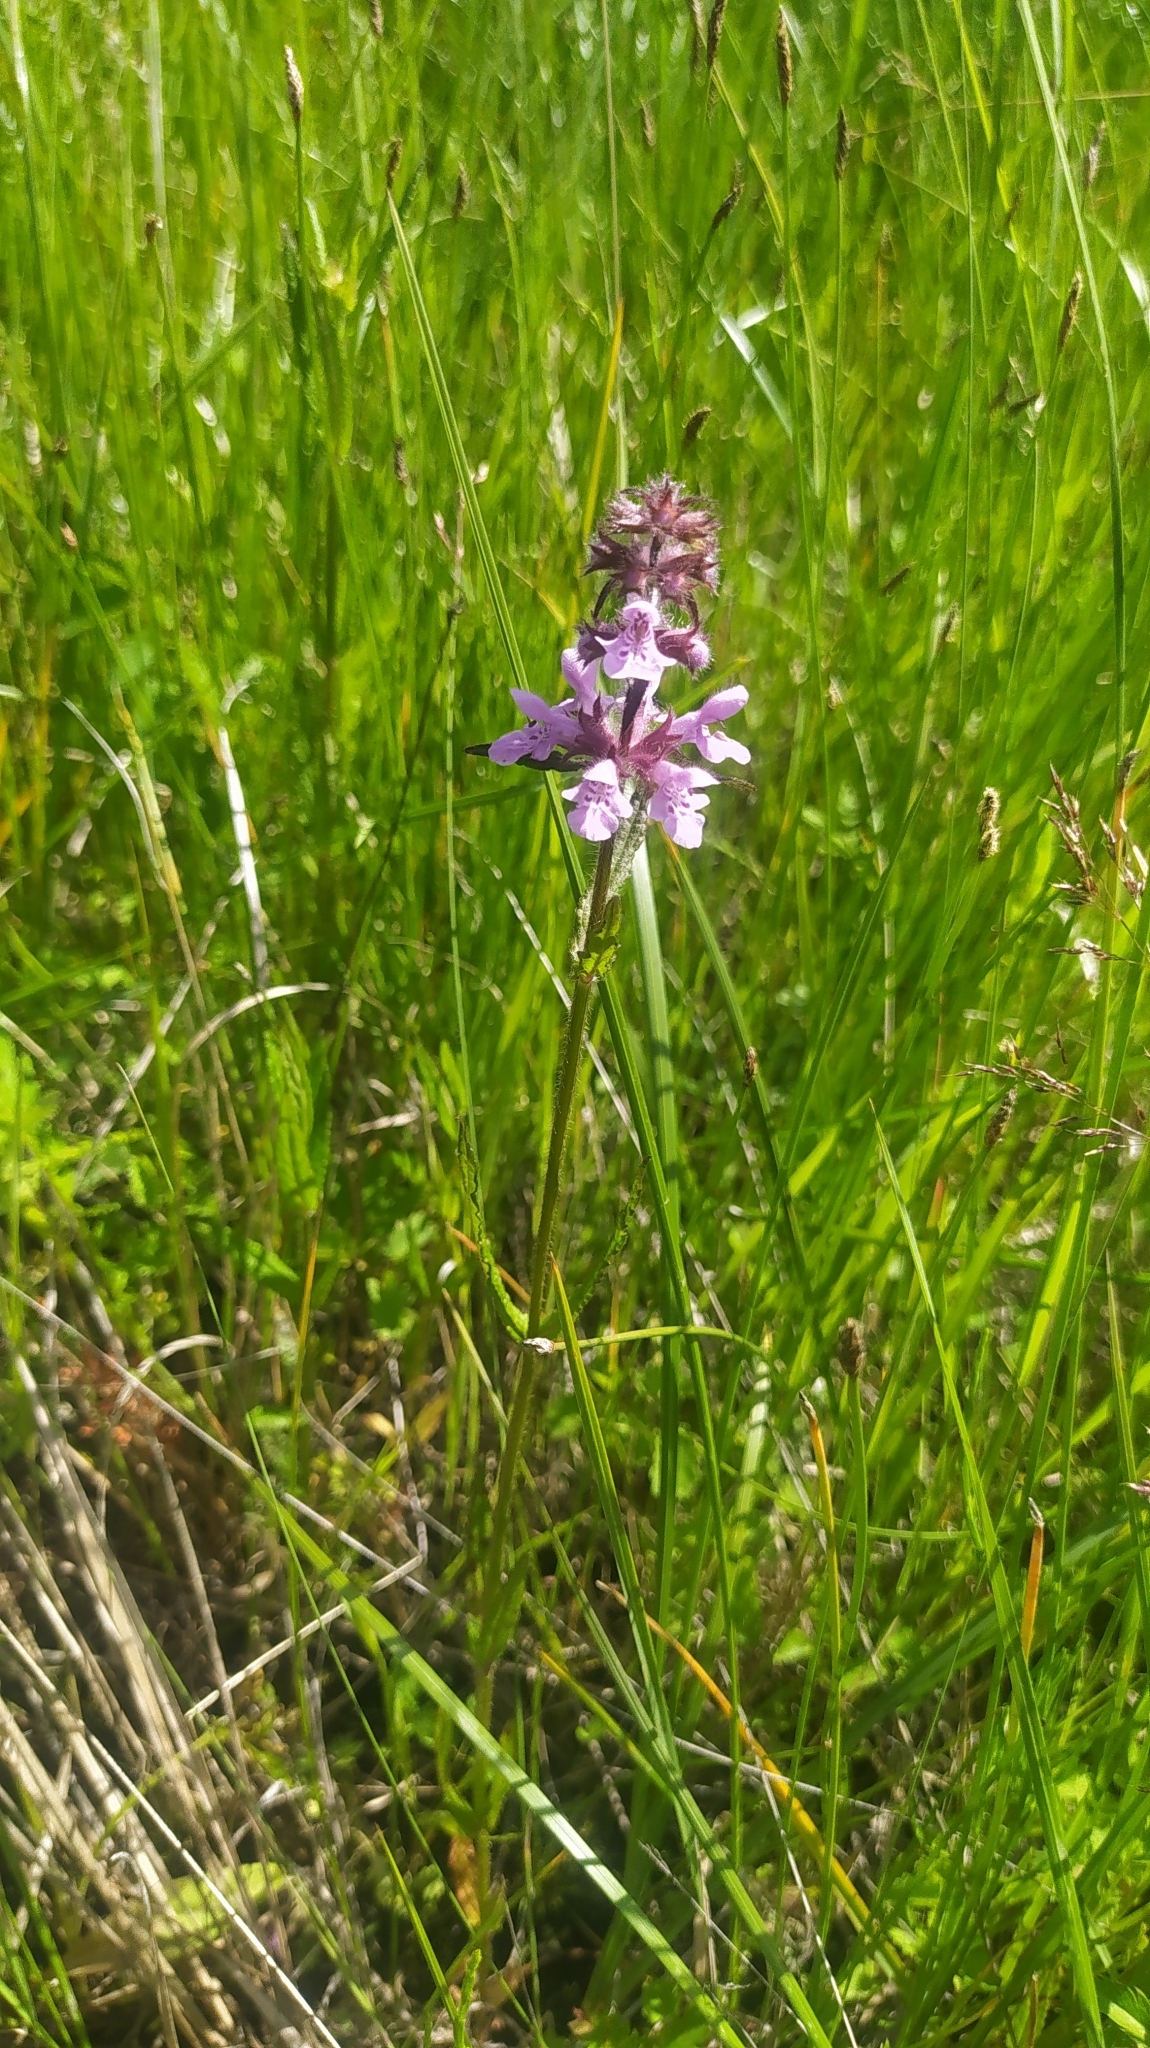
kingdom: Plantae
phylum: Tracheophyta
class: Magnoliopsida
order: Lamiales
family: Lamiaceae
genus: Stachys
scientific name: Stachys aspera
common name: Hyssopleaf hedgenettle
